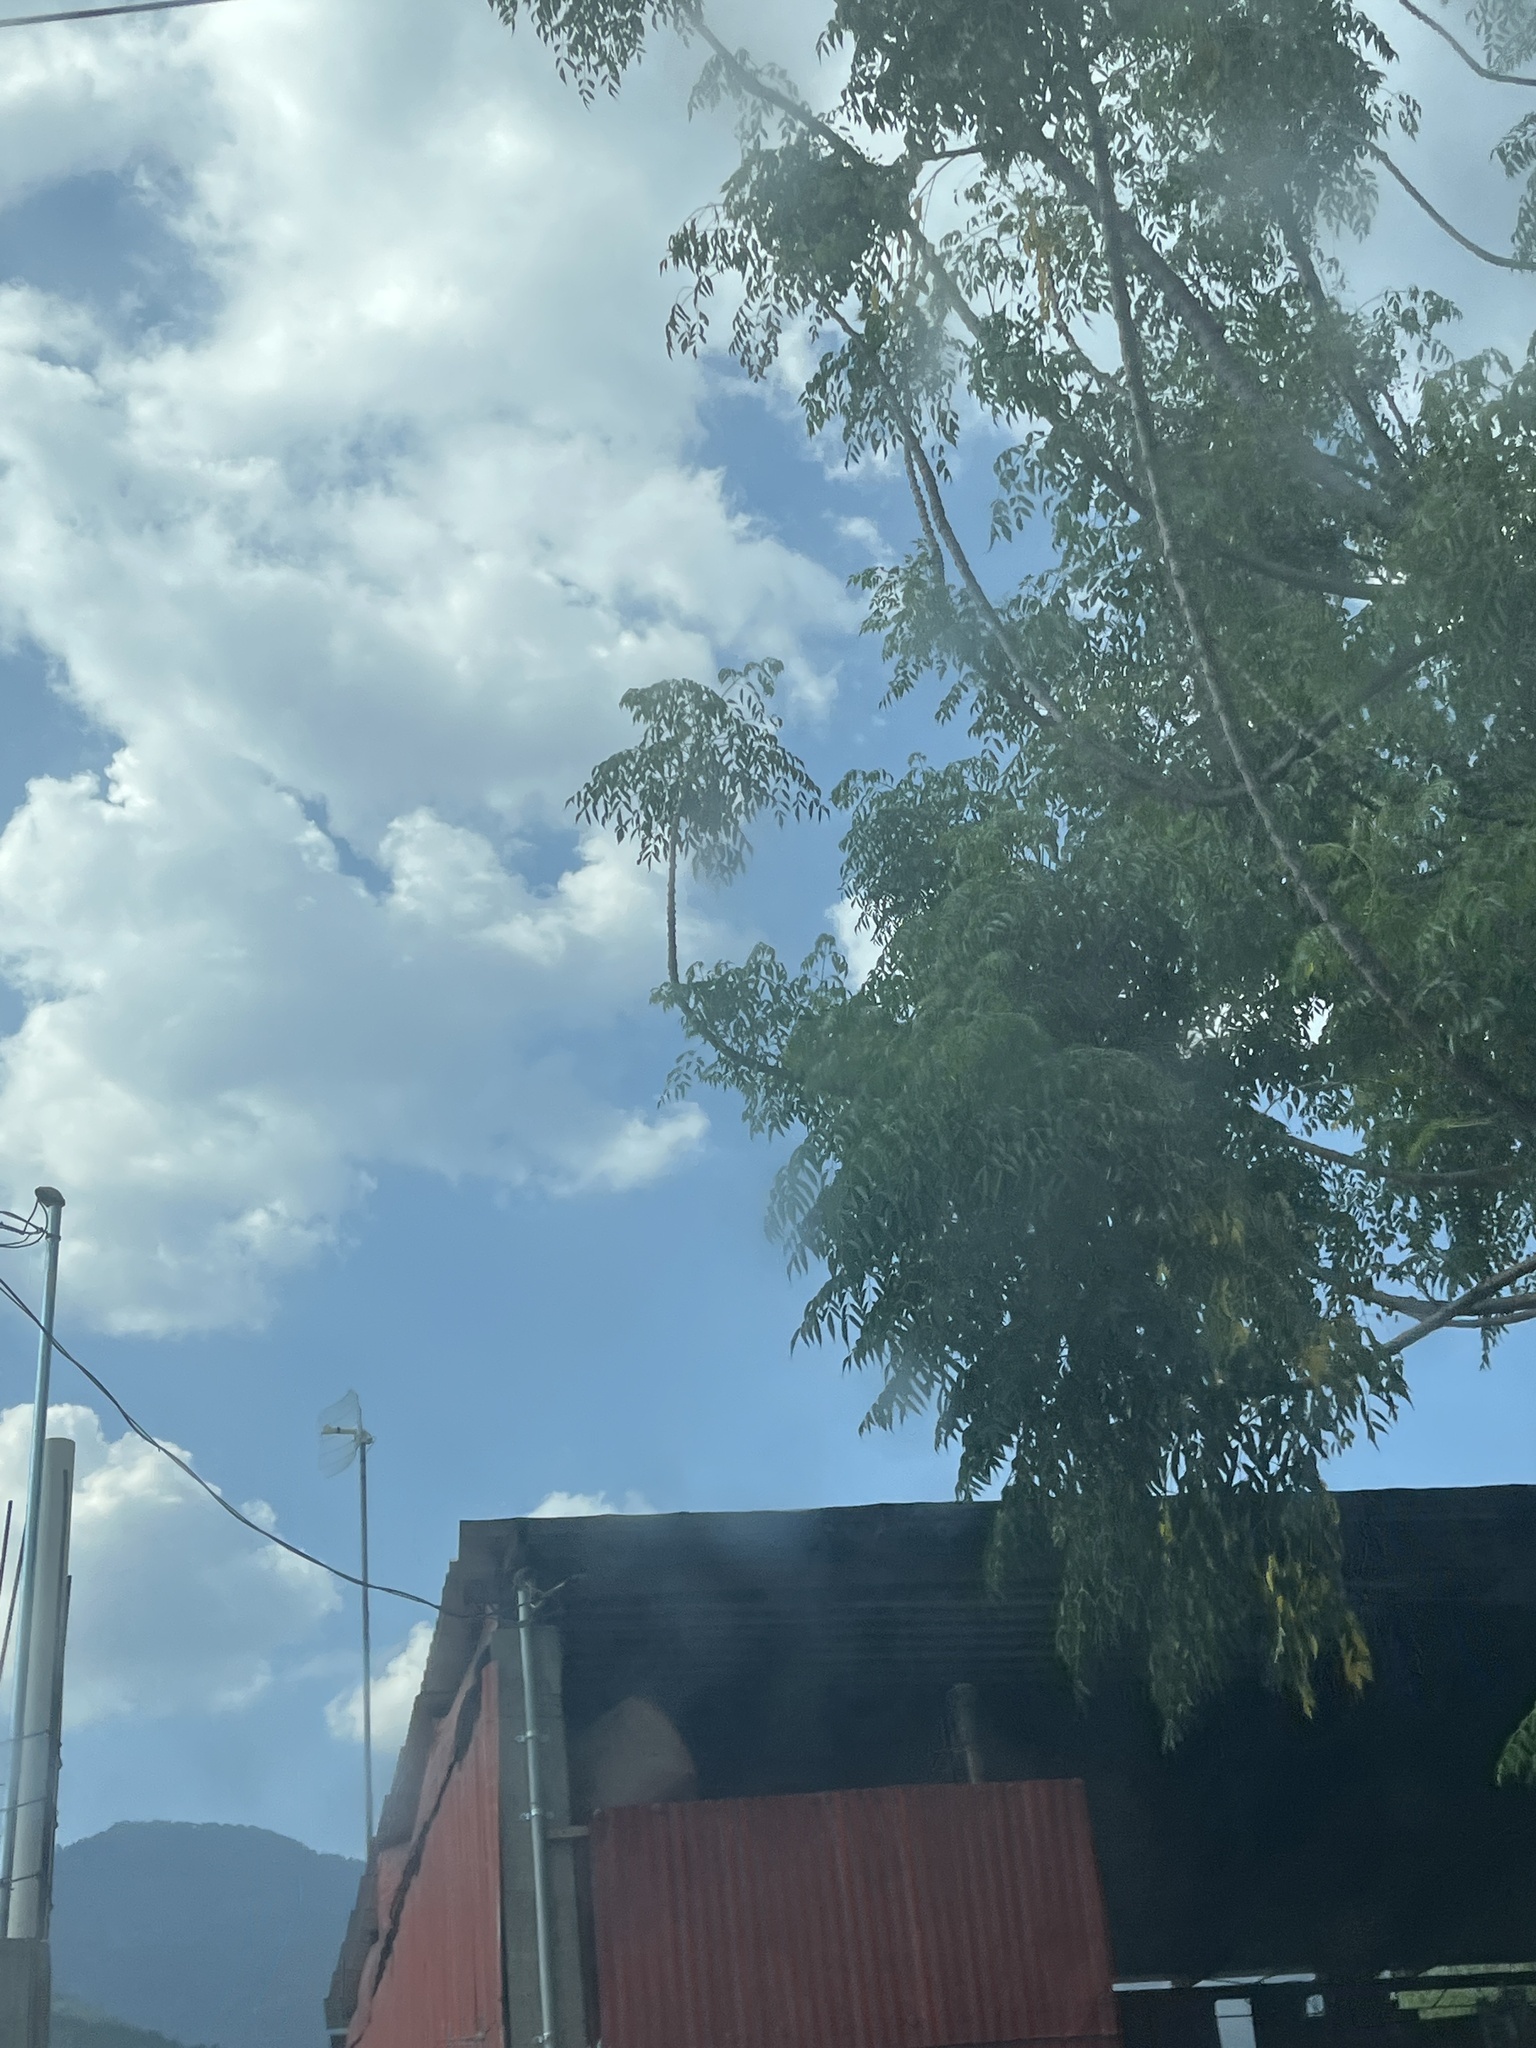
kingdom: Plantae
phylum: Tracheophyta
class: Magnoliopsida
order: Sapindales
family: Meliaceae
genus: Melia
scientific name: Melia azedarach
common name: Chinaberrytree
